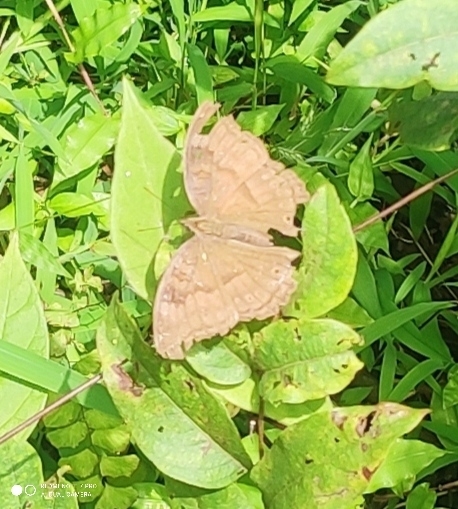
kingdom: Animalia
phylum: Arthropoda
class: Insecta
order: Lepidoptera
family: Nymphalidae
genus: Junonia
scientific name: Junonia iphita
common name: Chocolate pansy
